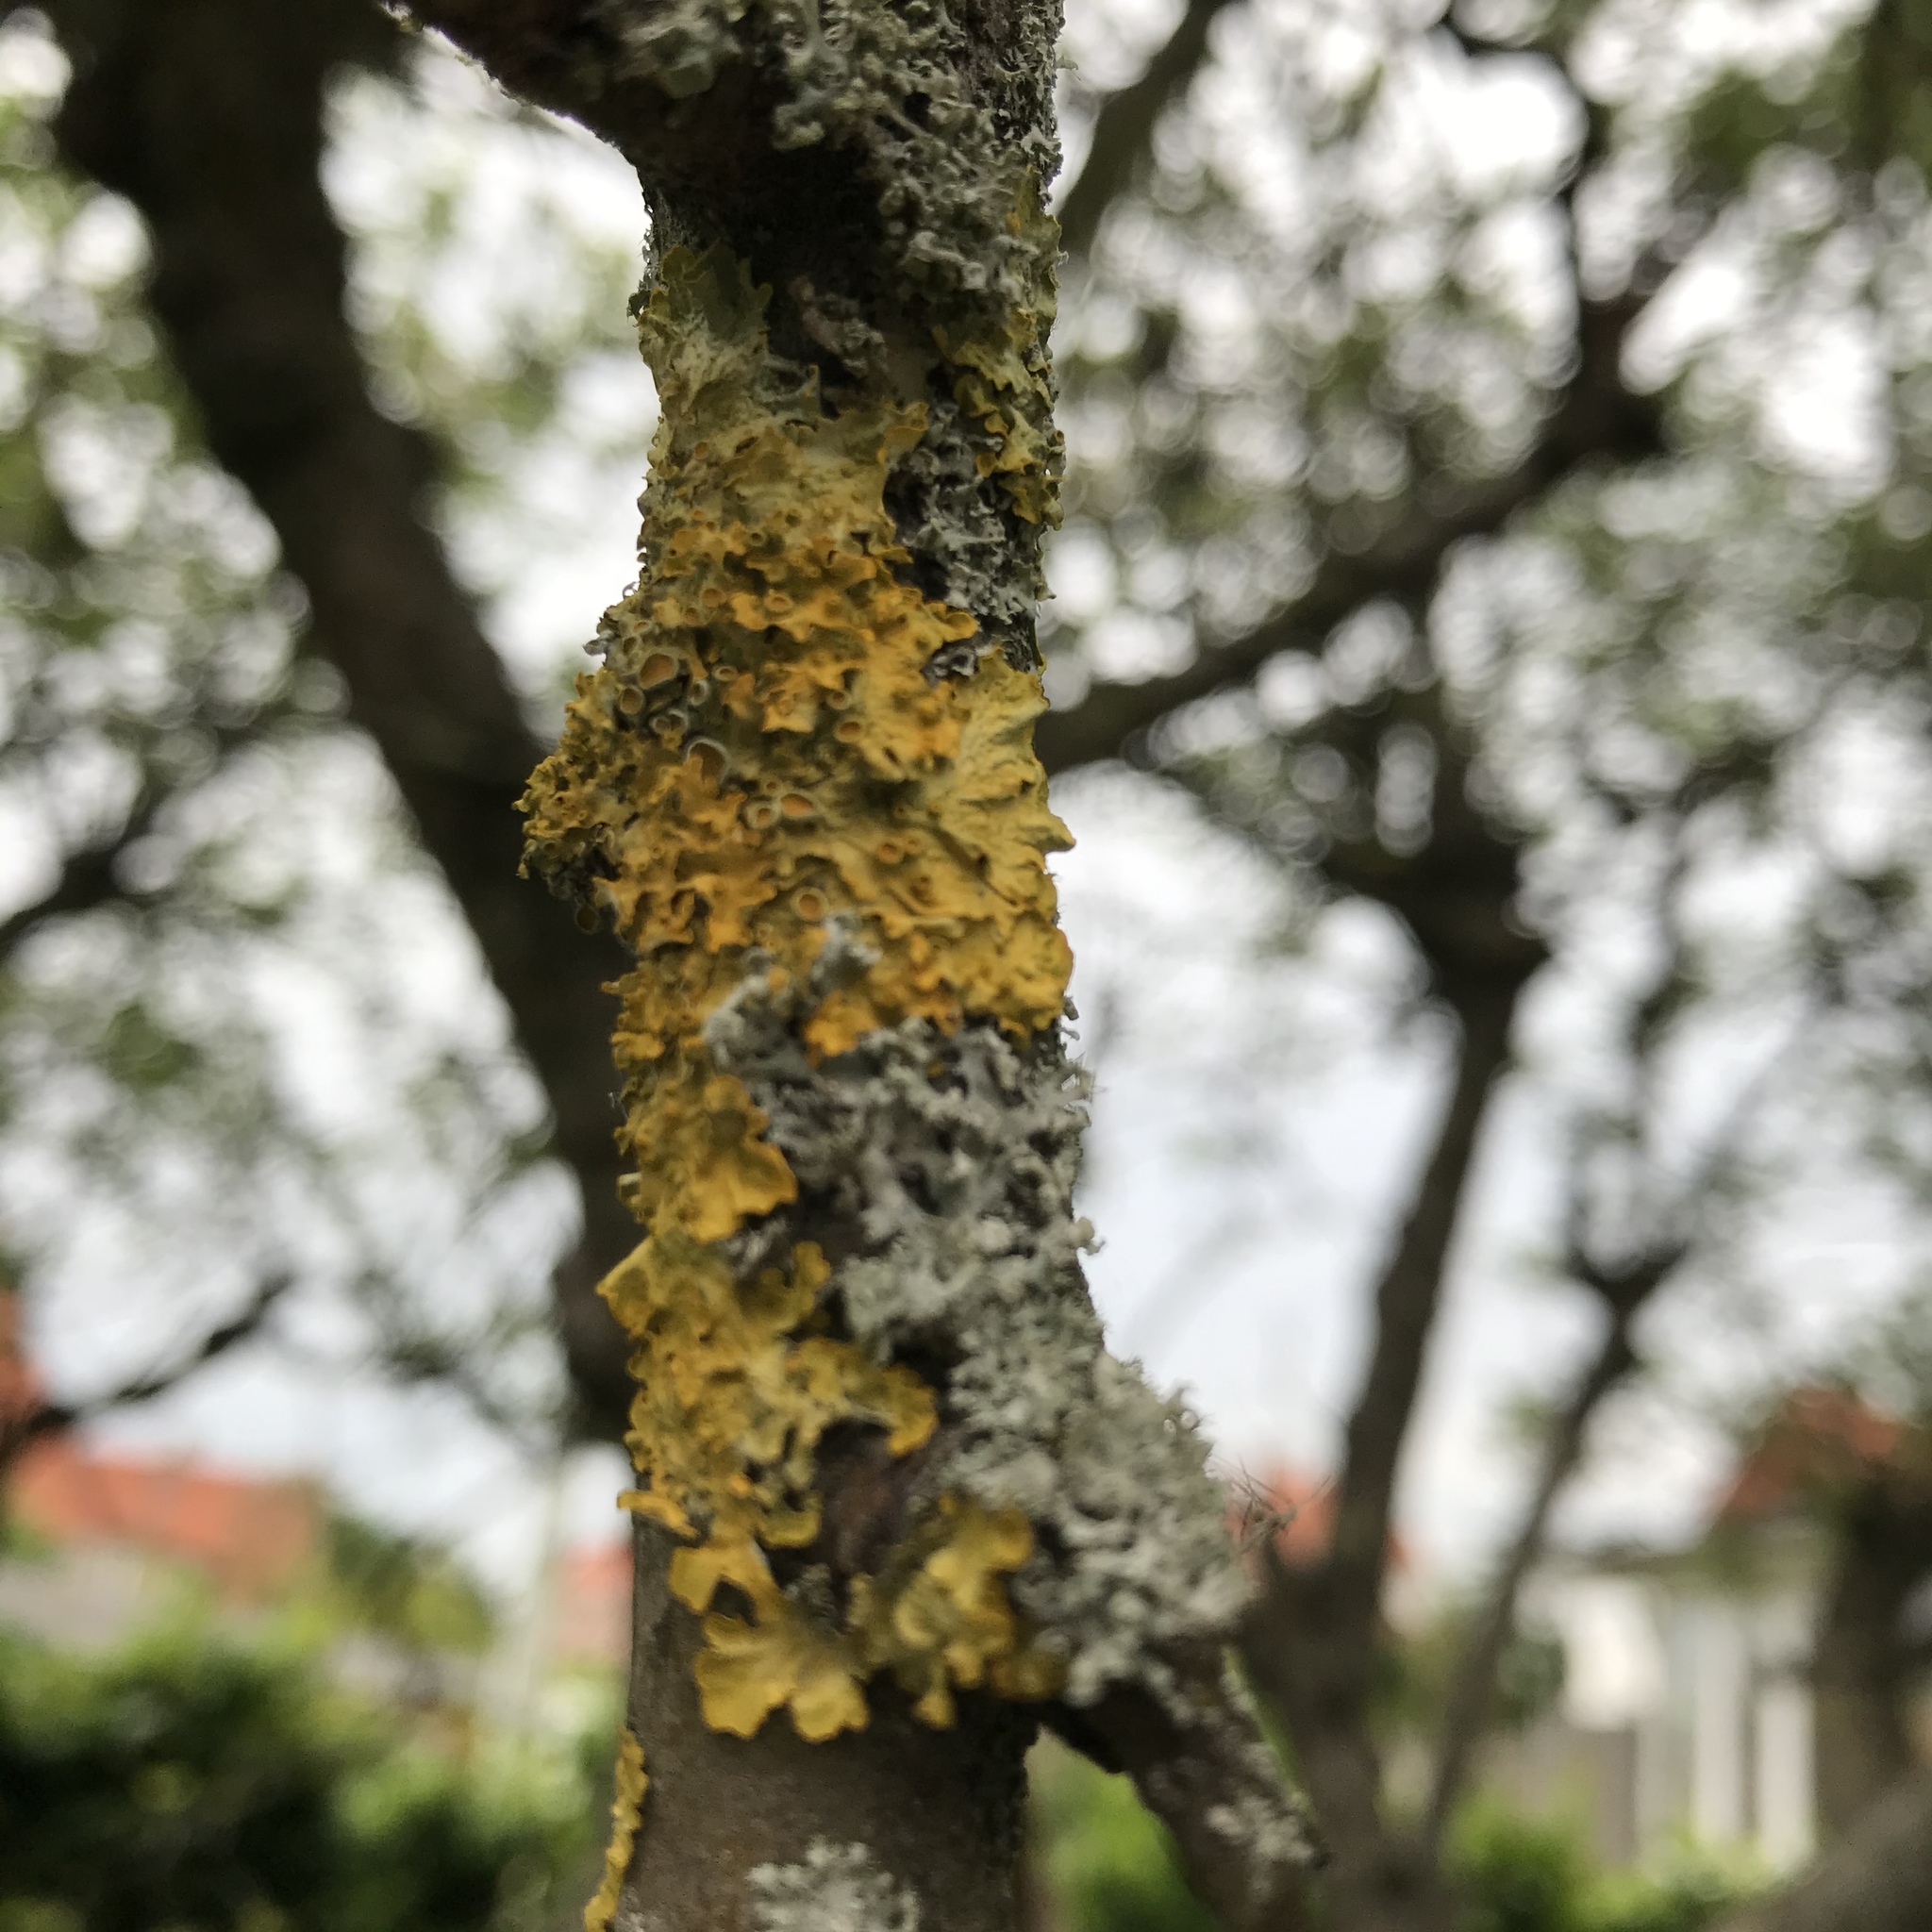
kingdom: Fungi
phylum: Ascomycota
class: Lecanoromycetes
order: Teloschistales
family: Teloschistaceae
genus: Xanthoria
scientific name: Xanthoria parietina
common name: Common orange lichen
